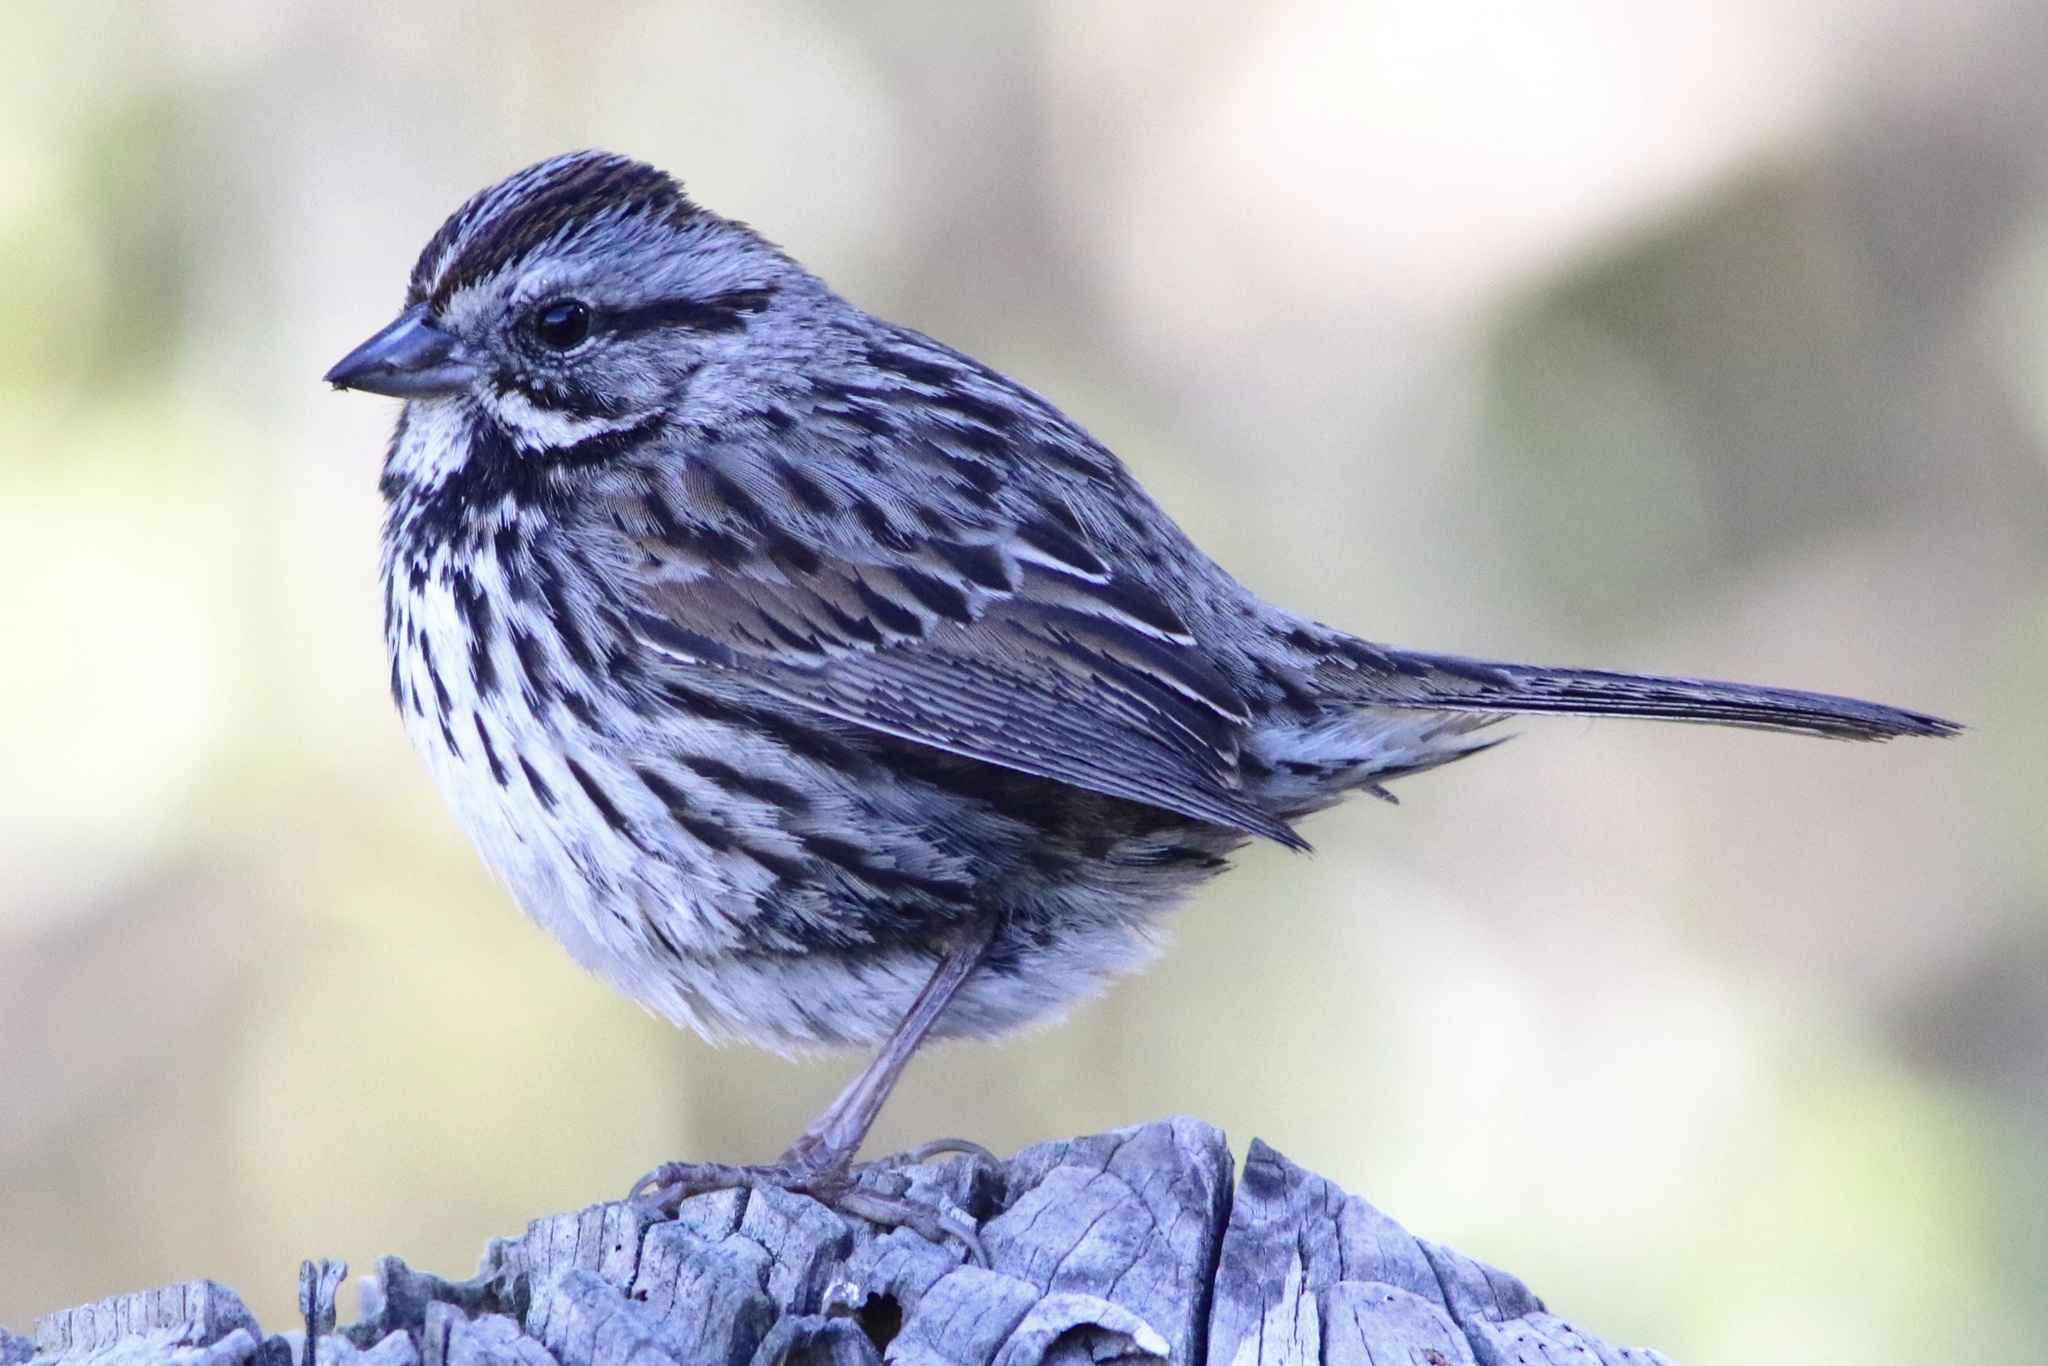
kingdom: Animalia
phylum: Chordata
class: Aves
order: Passeriformes
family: Passerellidae
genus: Melospiza
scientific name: Melospiza melodia
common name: Song sparrow
